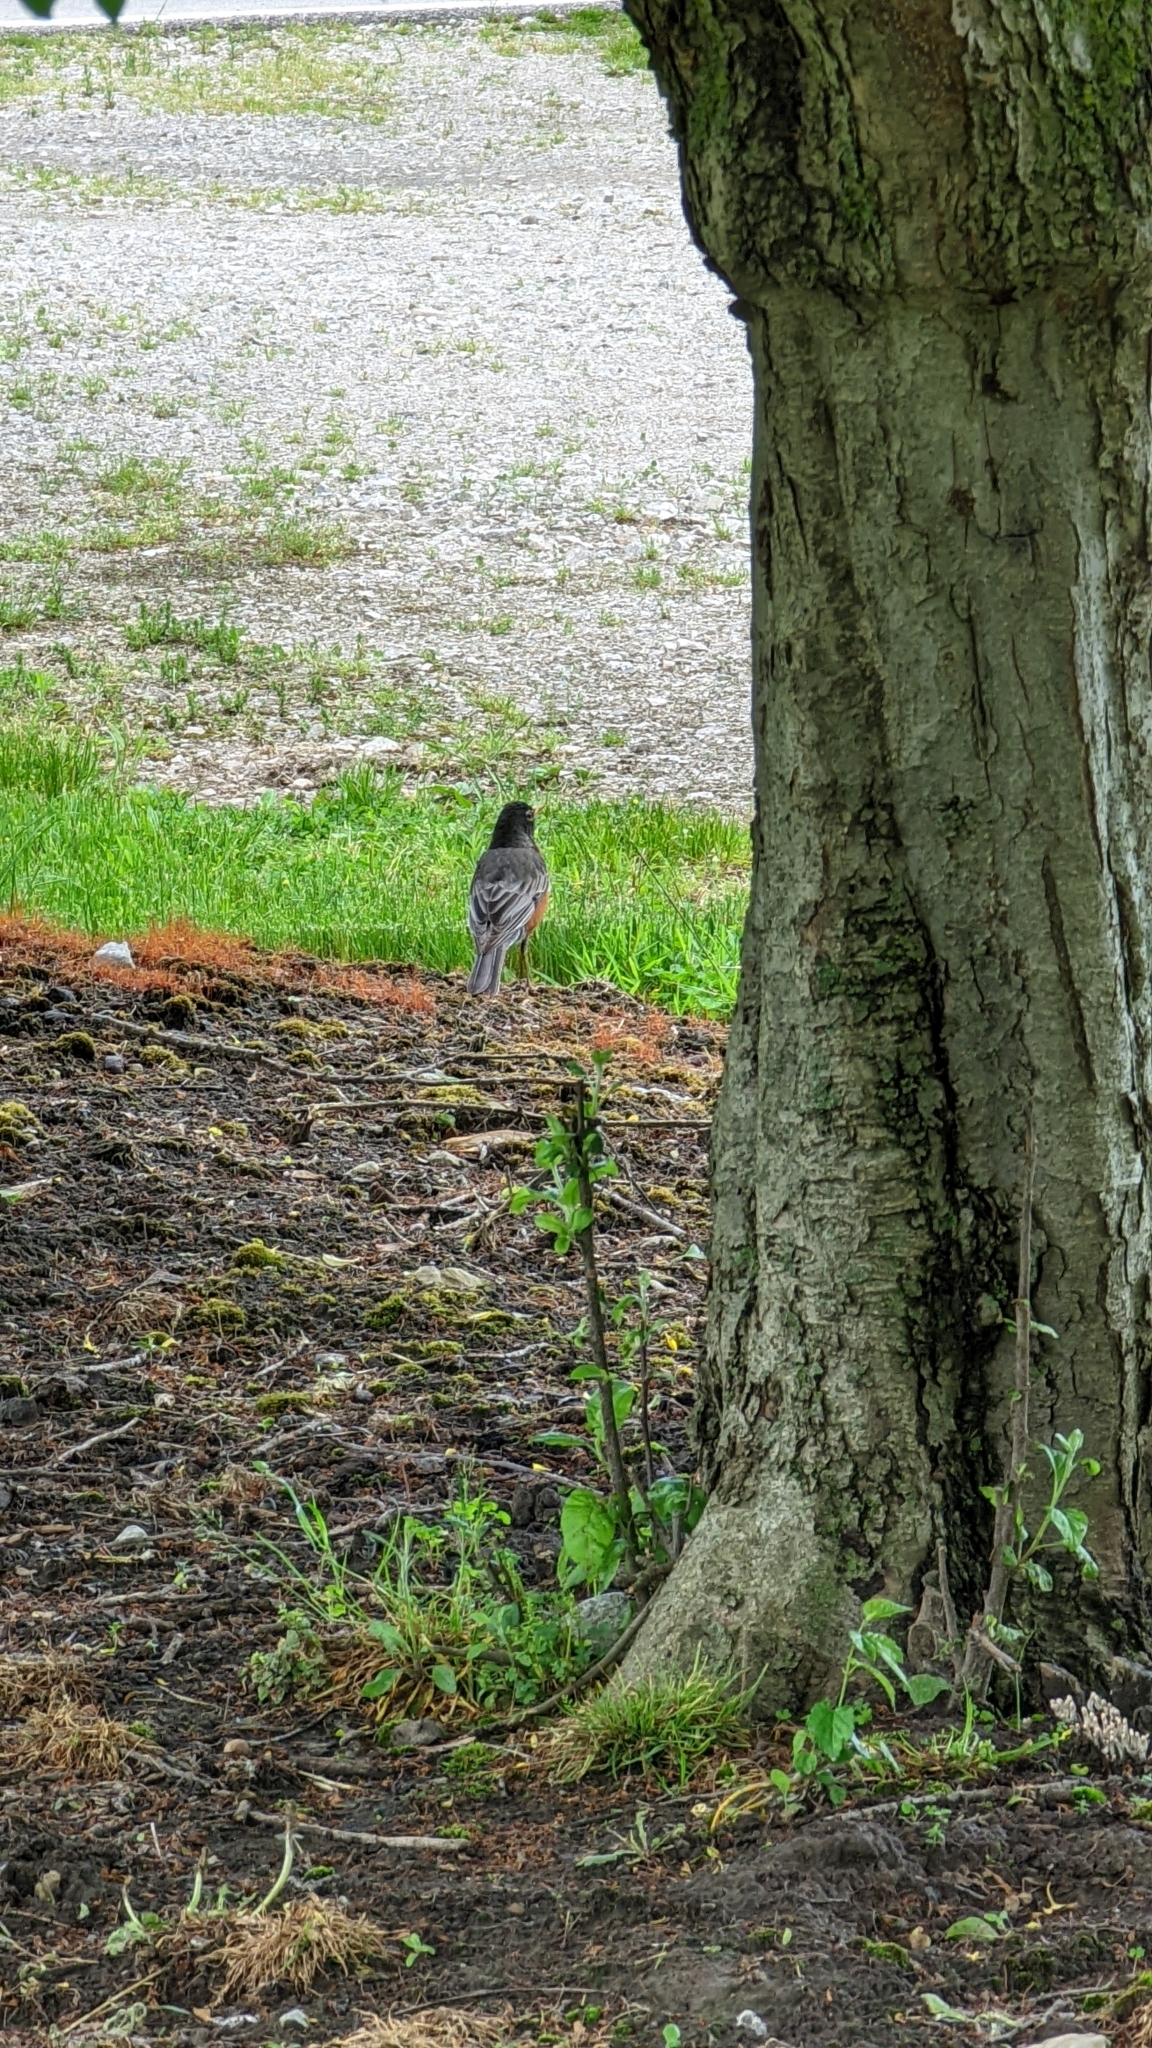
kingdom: Animalia
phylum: Chordata
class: Aves
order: Passeriformes
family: Turdidae
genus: Turdus
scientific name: Turdus migratorius
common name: American robin
